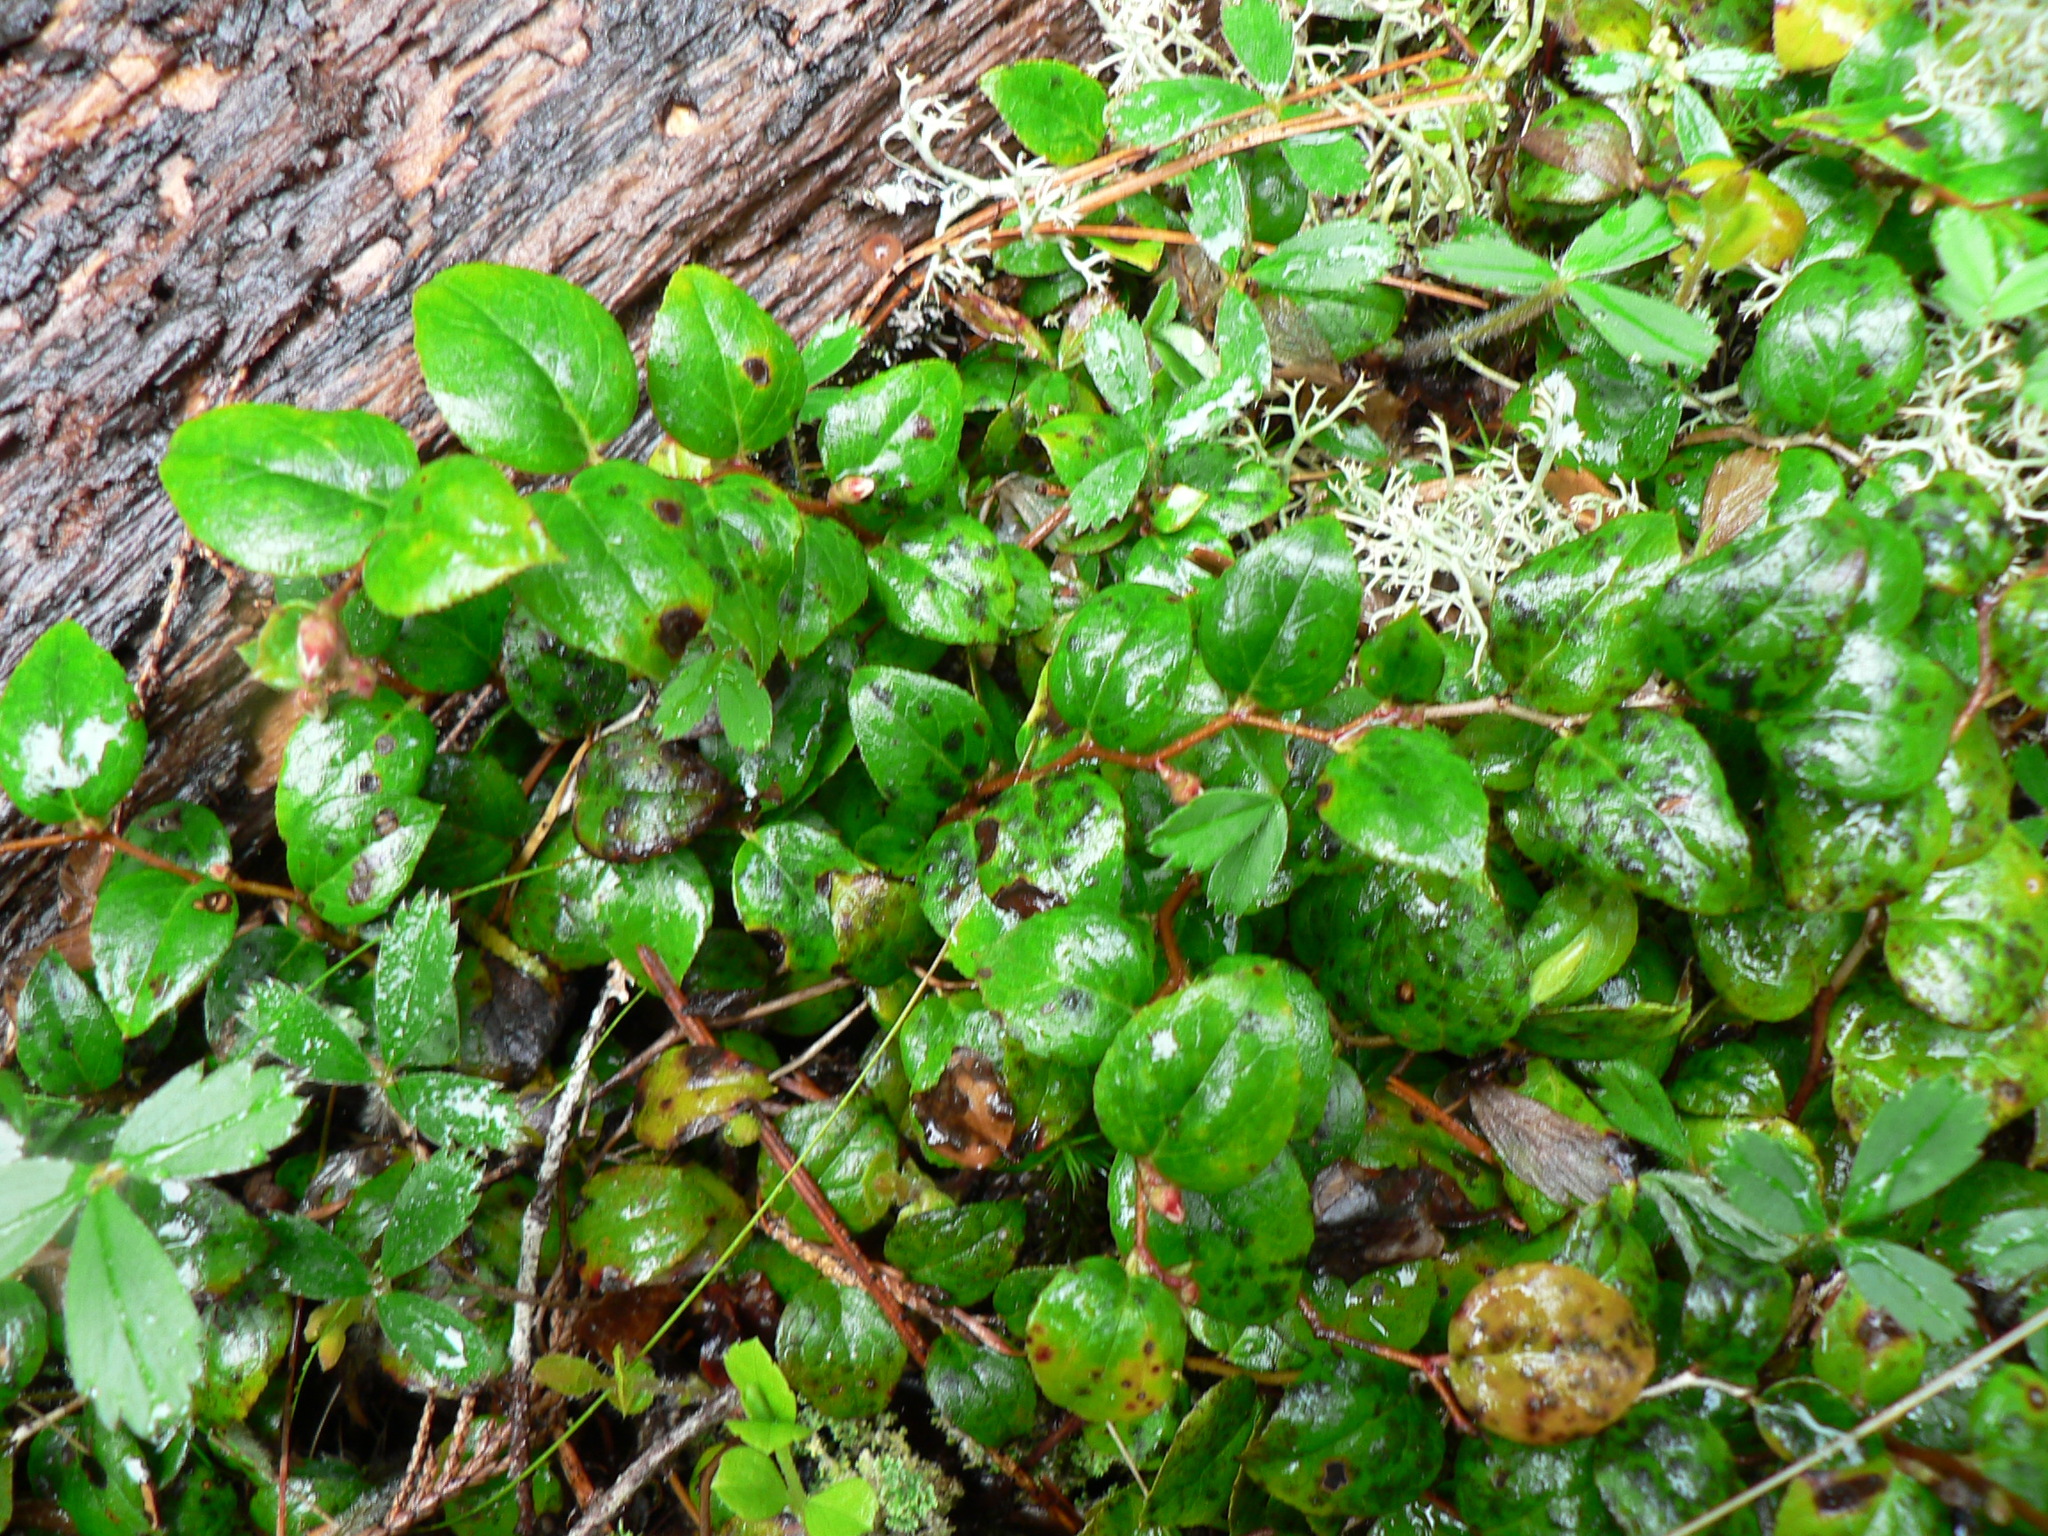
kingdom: Plantae
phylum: Tracheophyta
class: Magnoliopsida
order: Ericales
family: Ericaceae
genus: Gaultheria
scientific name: Gaultheria ovatifolia
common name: Oregon wintergreen
